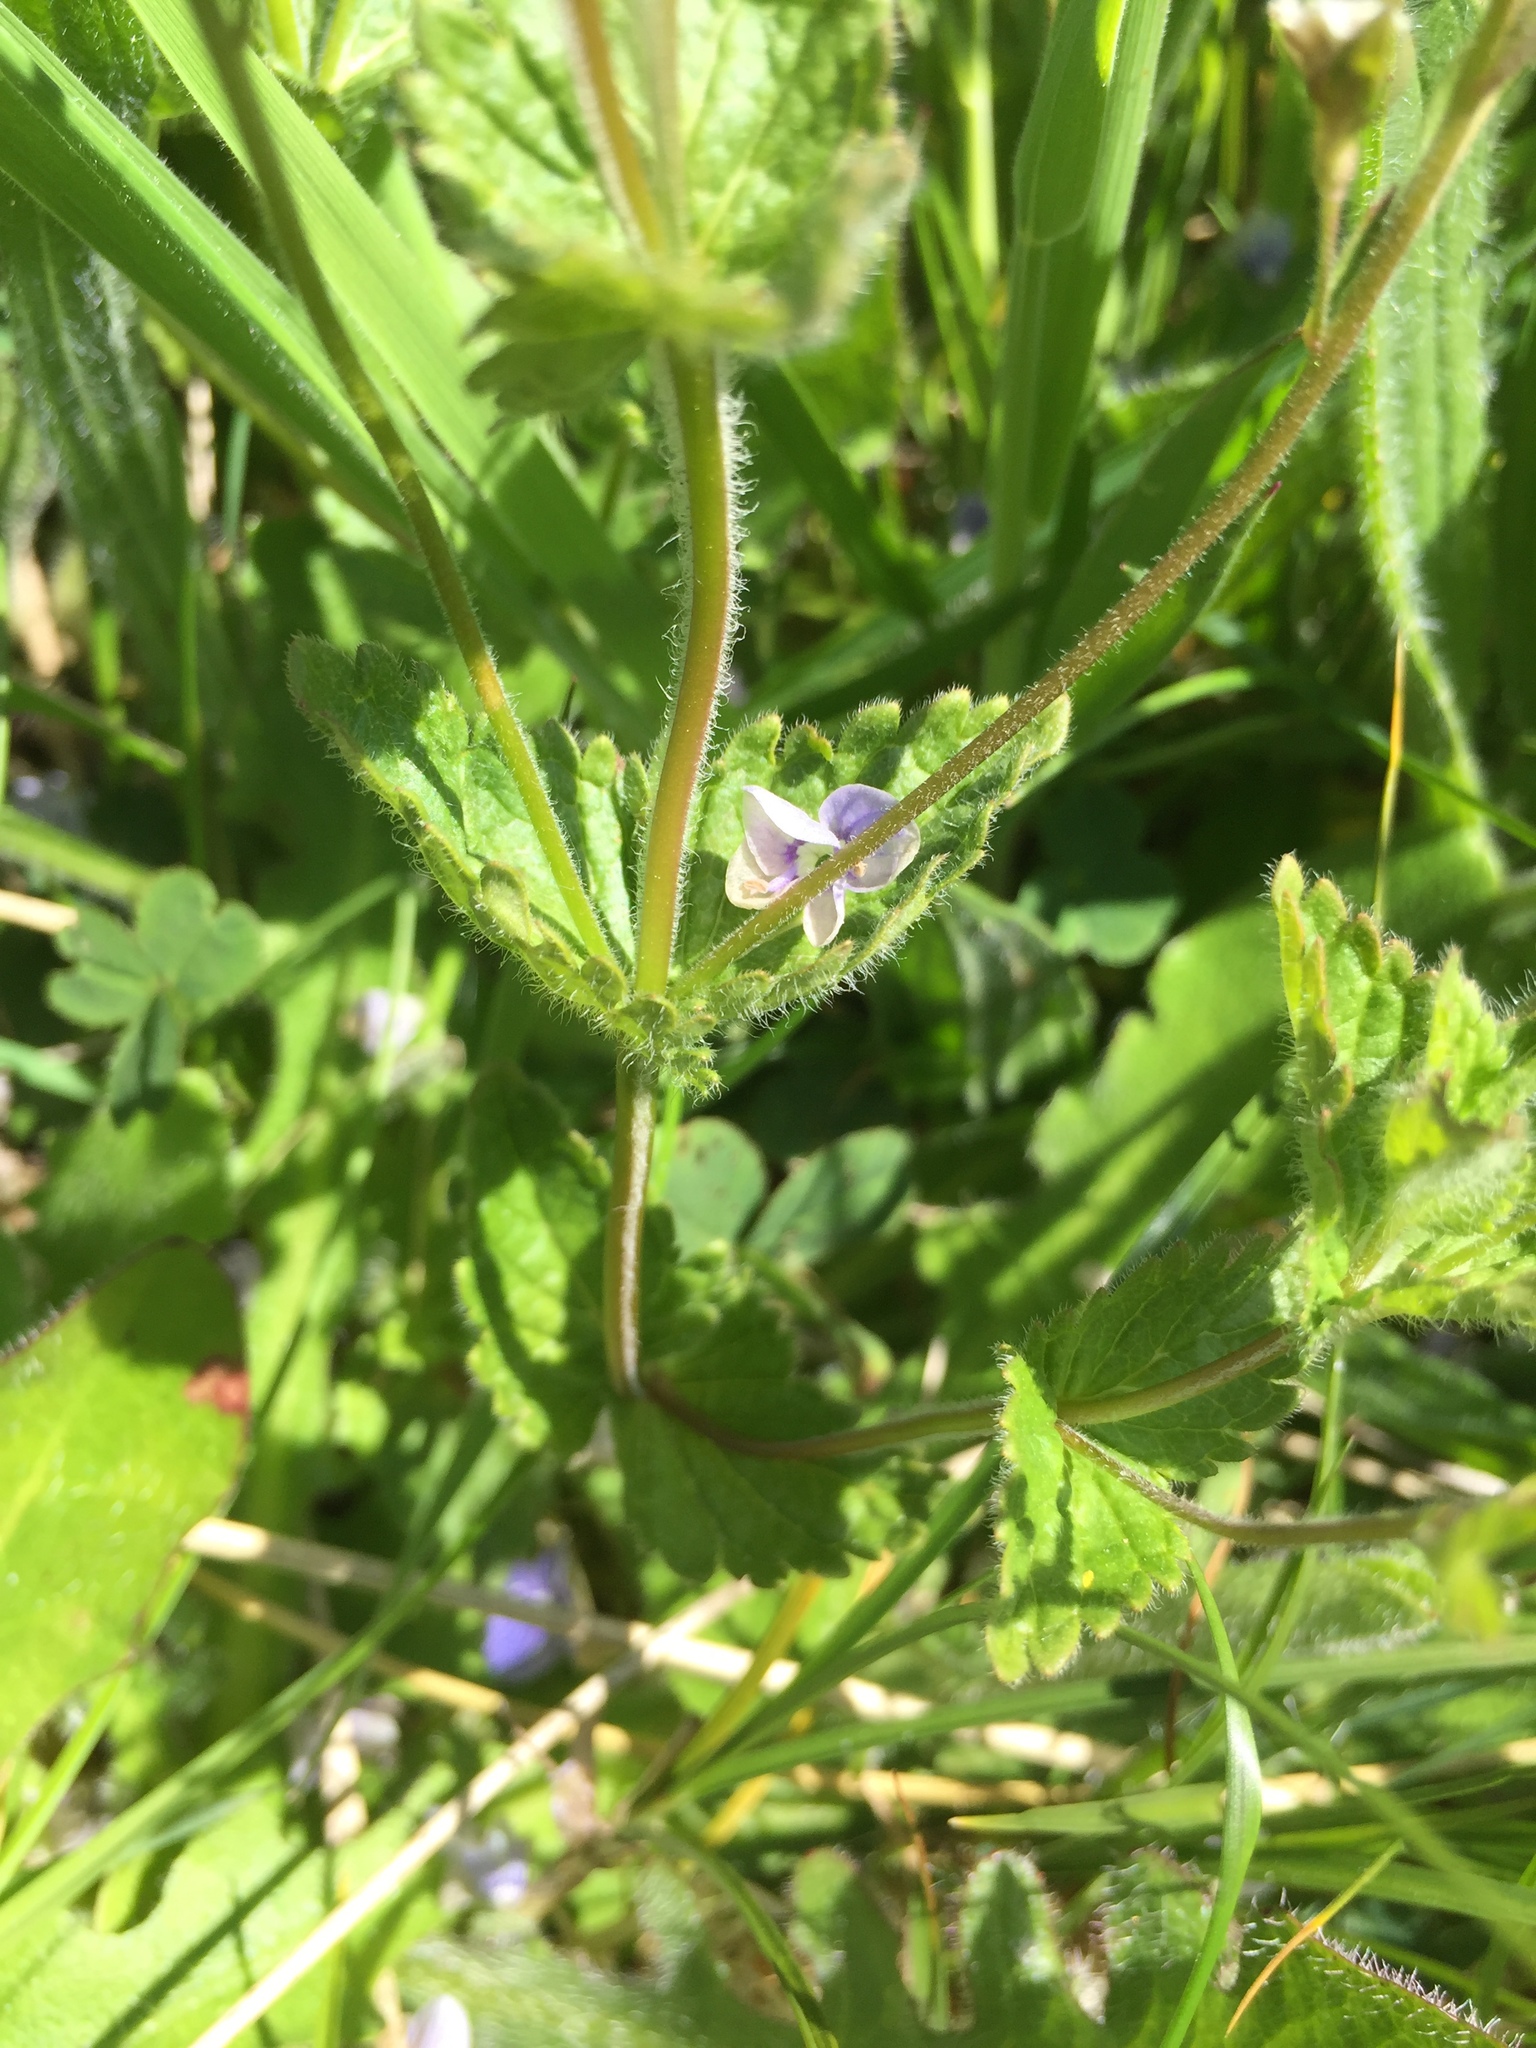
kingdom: Plantae
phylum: Tracheophyta
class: Magnoliopsida
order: Lamiales
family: Plantaginaceae
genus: Veronica
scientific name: Veronica chamaedrys
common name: Germander speedwell
